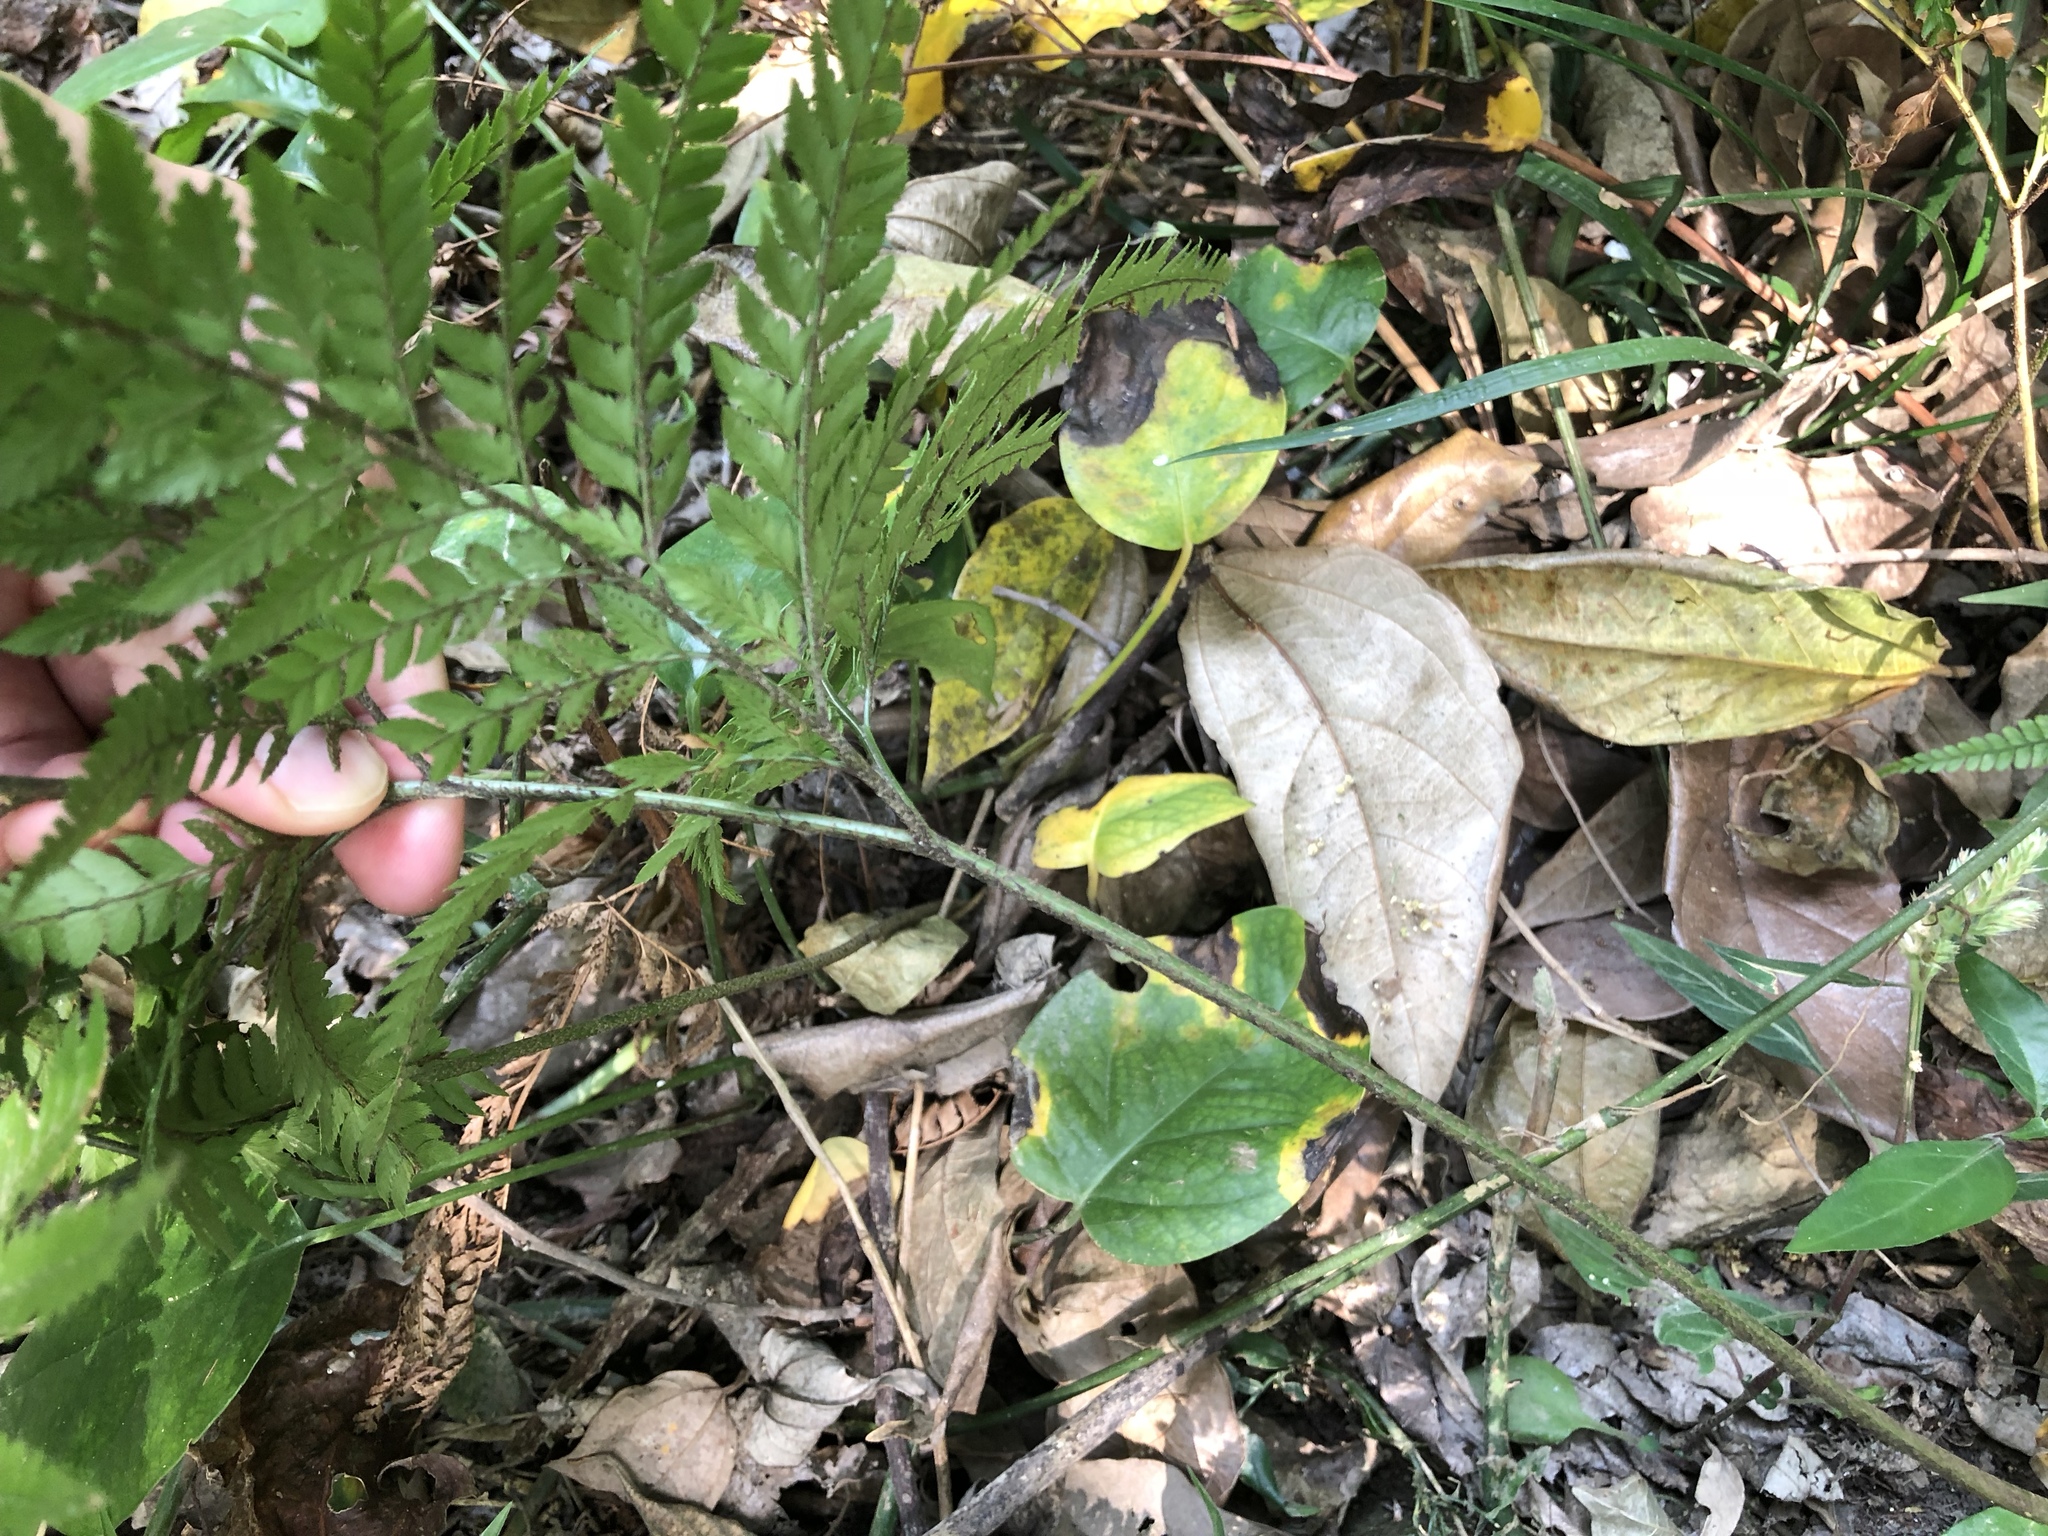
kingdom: Plantae
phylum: Tracheophyta
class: Polypodiopsida
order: Polypodiales
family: Dryopteridaceae
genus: Arachniodes
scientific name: Arachniodes pseudoaristata
